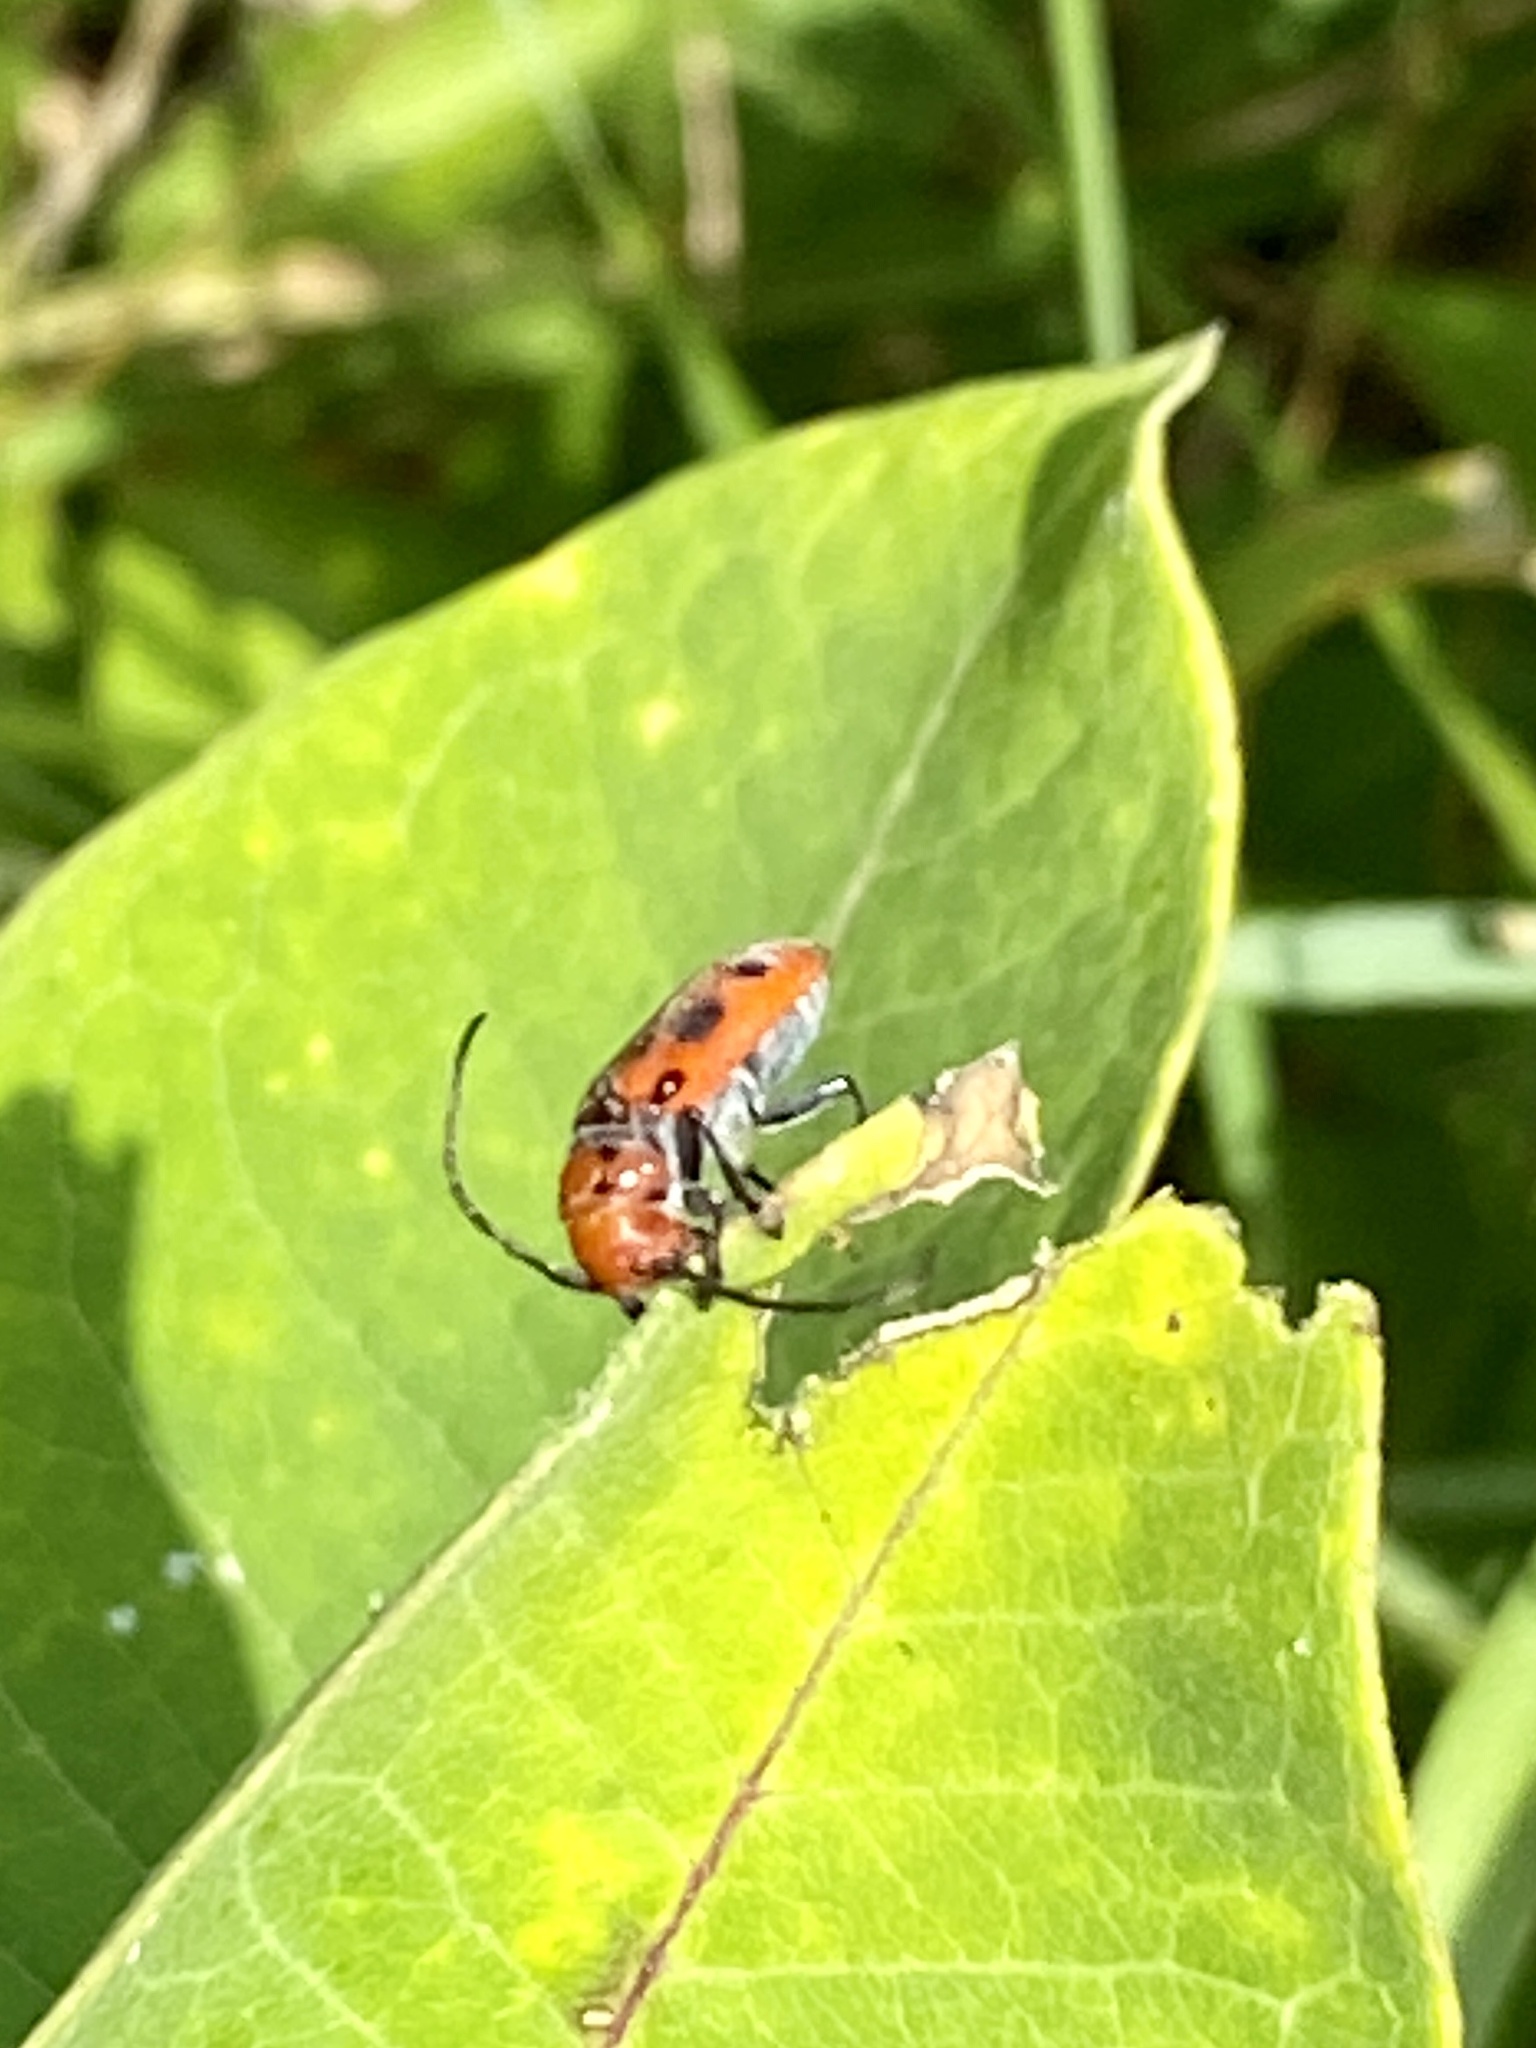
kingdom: Animalia
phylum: Arthropoda
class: Insecta
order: Coleoptera
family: Cerambycidae
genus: Tetraopes
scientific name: Tetraopes tetrophthalmus
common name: Red milkweed beetle
